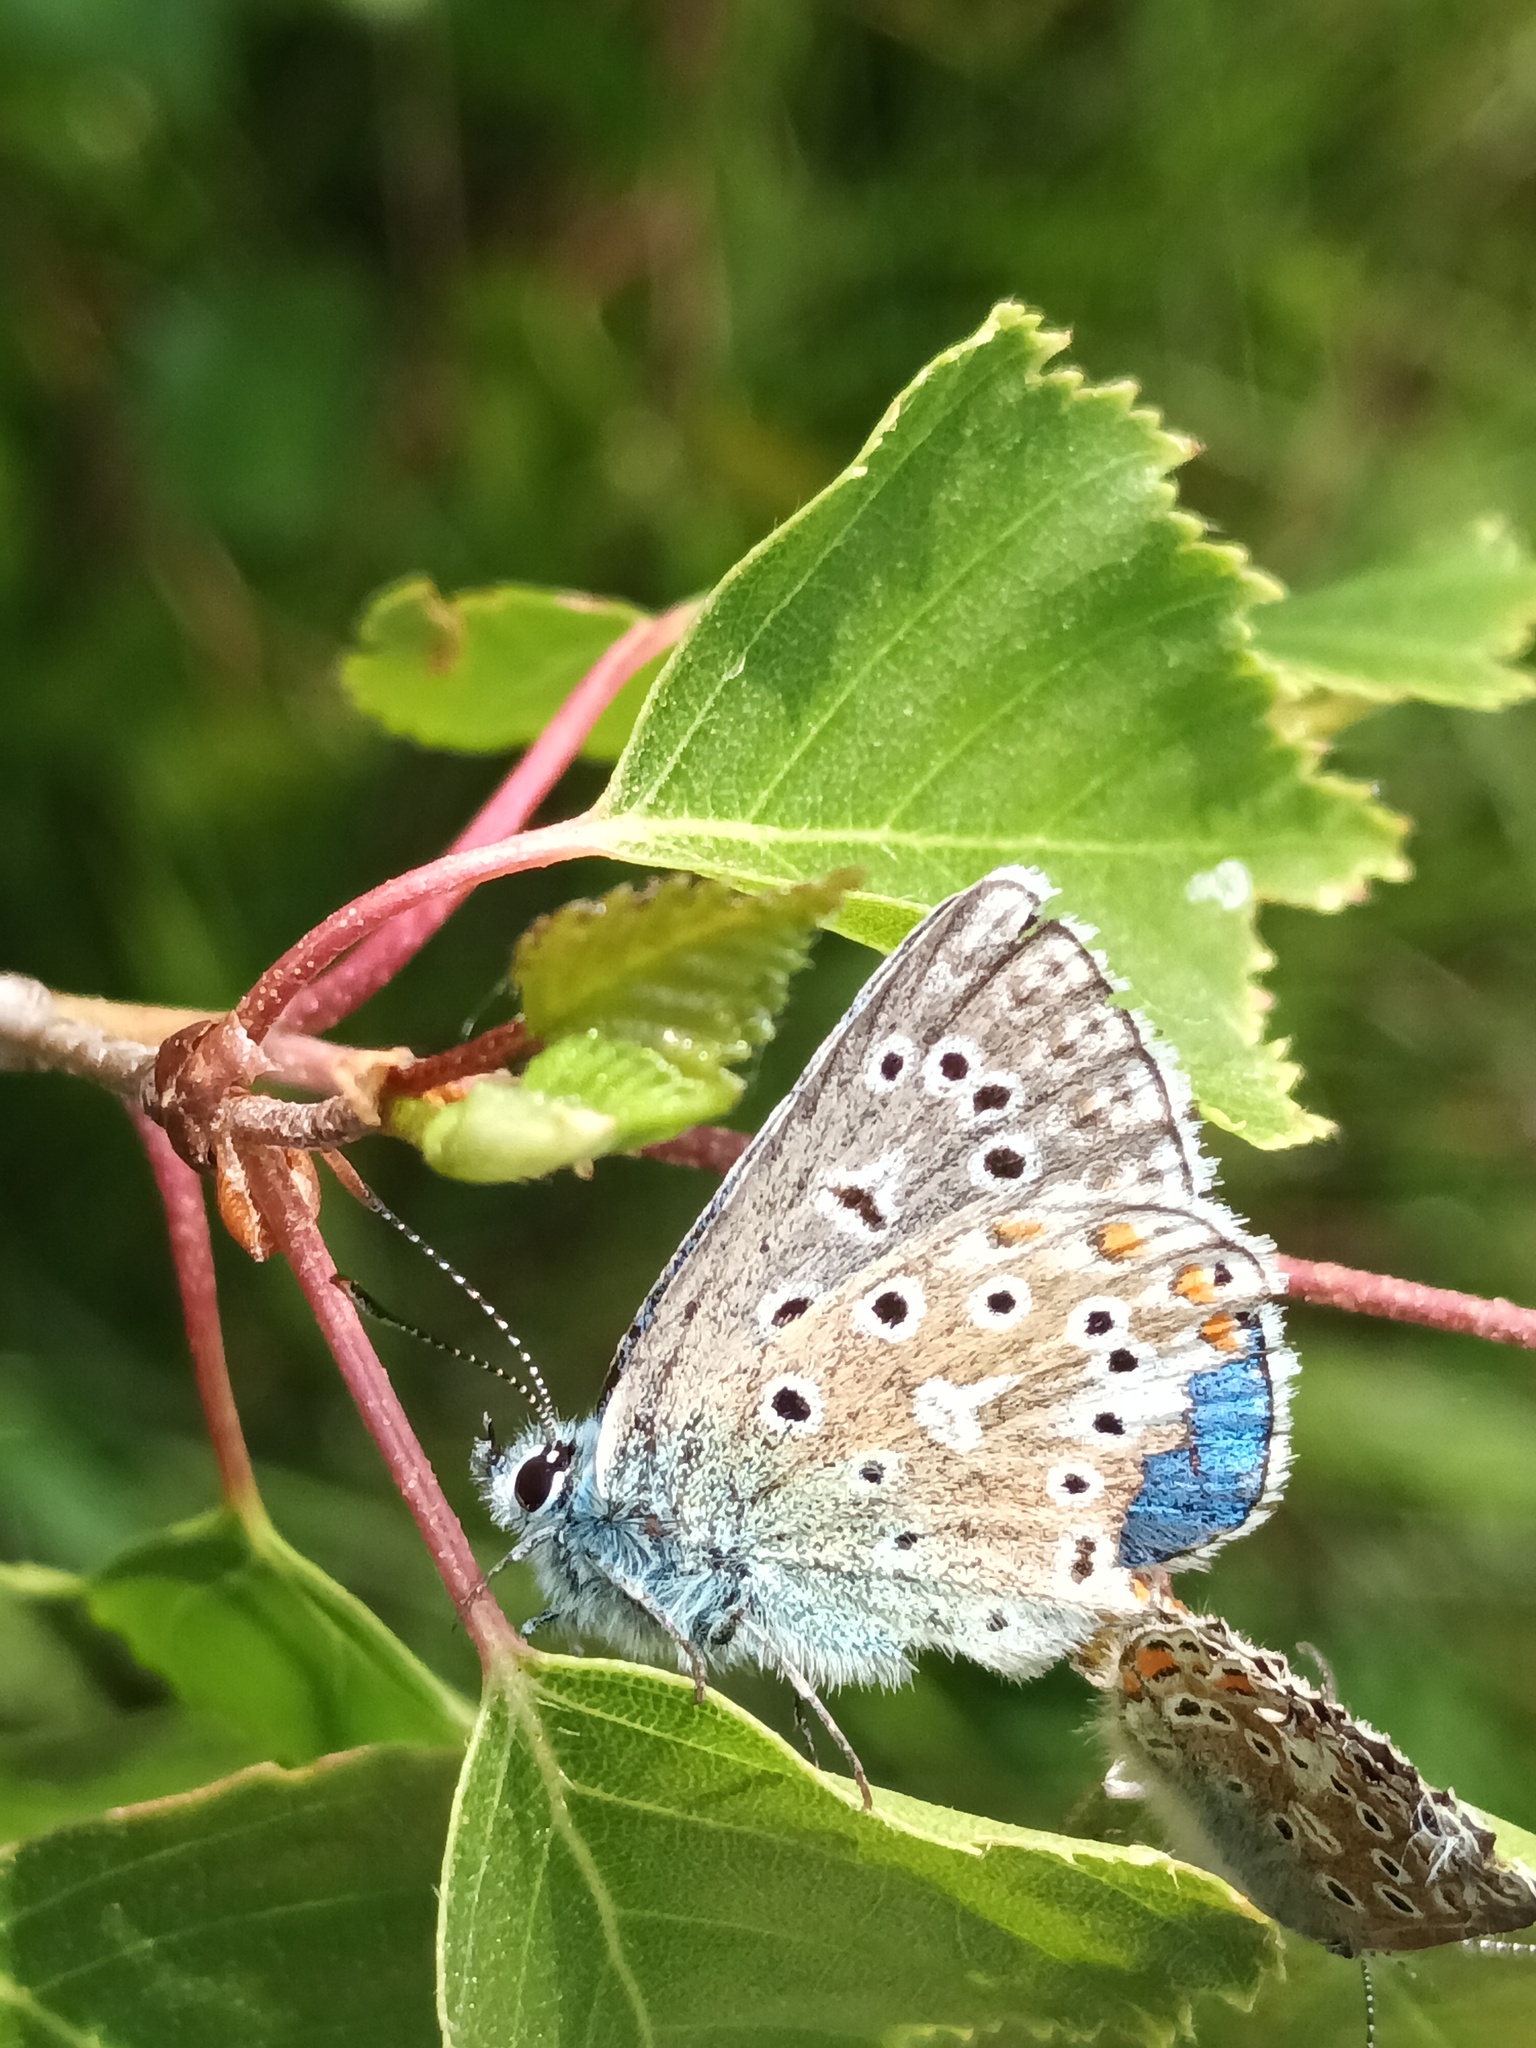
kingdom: Animalia
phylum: Arthropoda
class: Insecta
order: Lepidoptera
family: Lycaenidae
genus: Lysandra
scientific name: Lysandra bellargus
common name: Adonis blue
